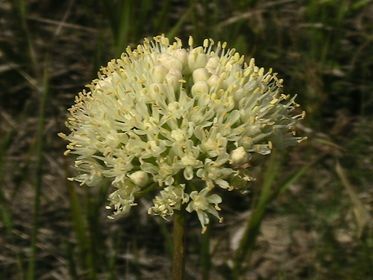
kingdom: Plantae
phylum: Tracheophyta
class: Liliopsida
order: Asparagales
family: Amaryllidaceae
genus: Allium
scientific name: Allium flavescens
